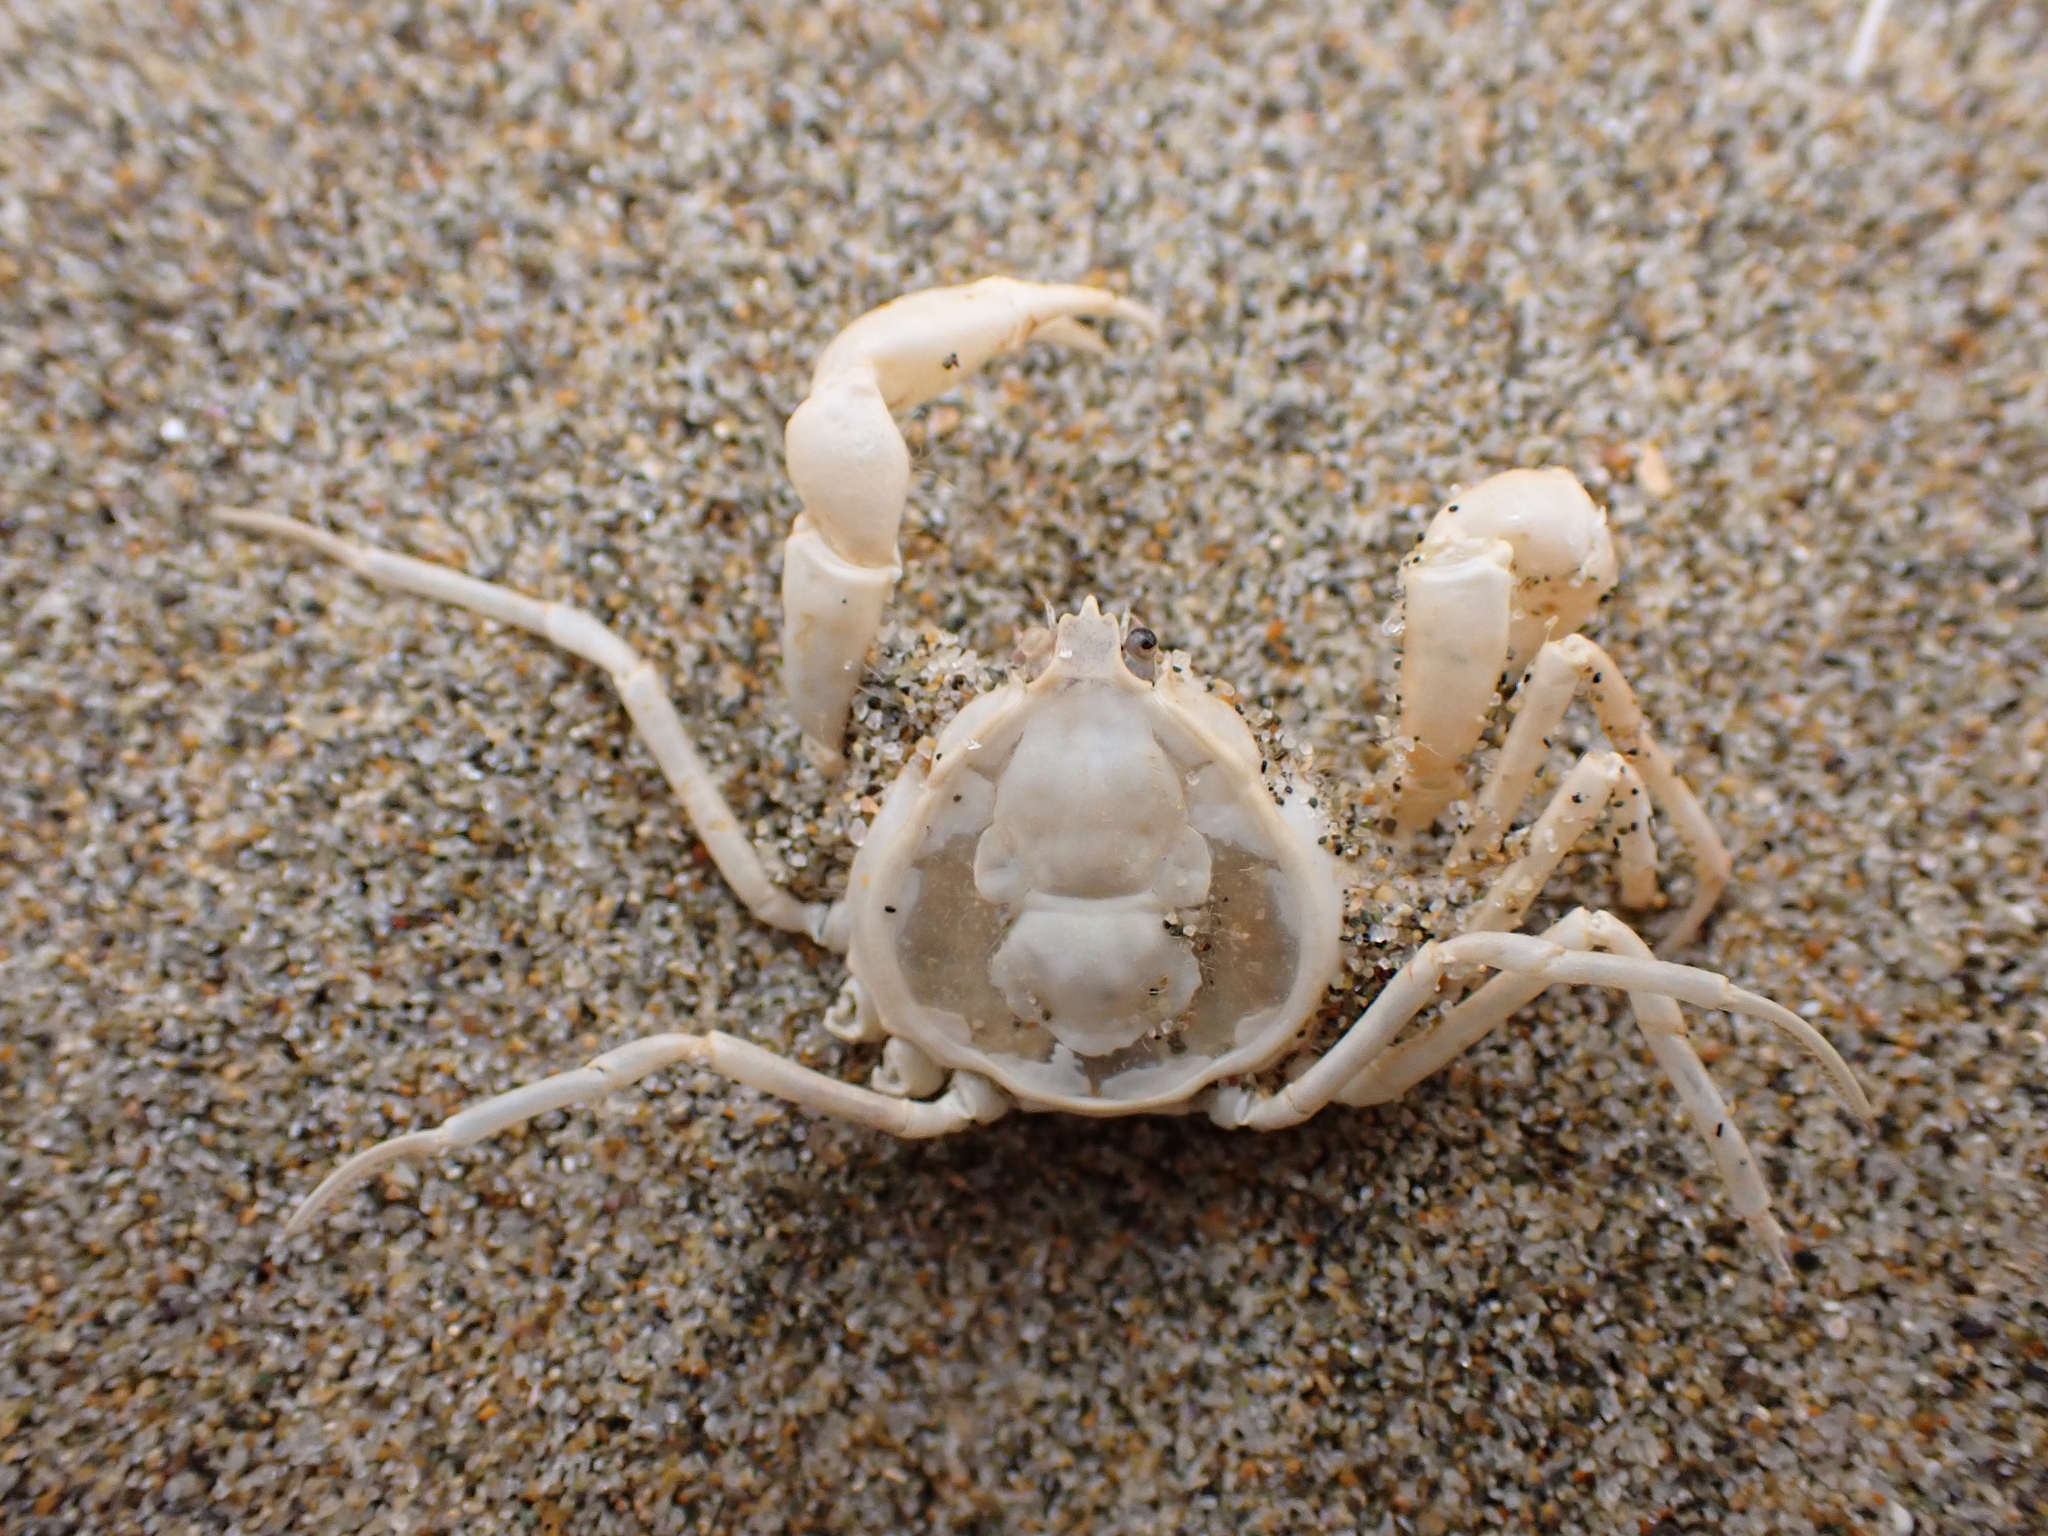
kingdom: Animalia
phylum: Arthropoda
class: Malacostraca
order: Decapoda
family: Hymenosomatidae
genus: Halicarcinus
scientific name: Halicarcinus whitei
